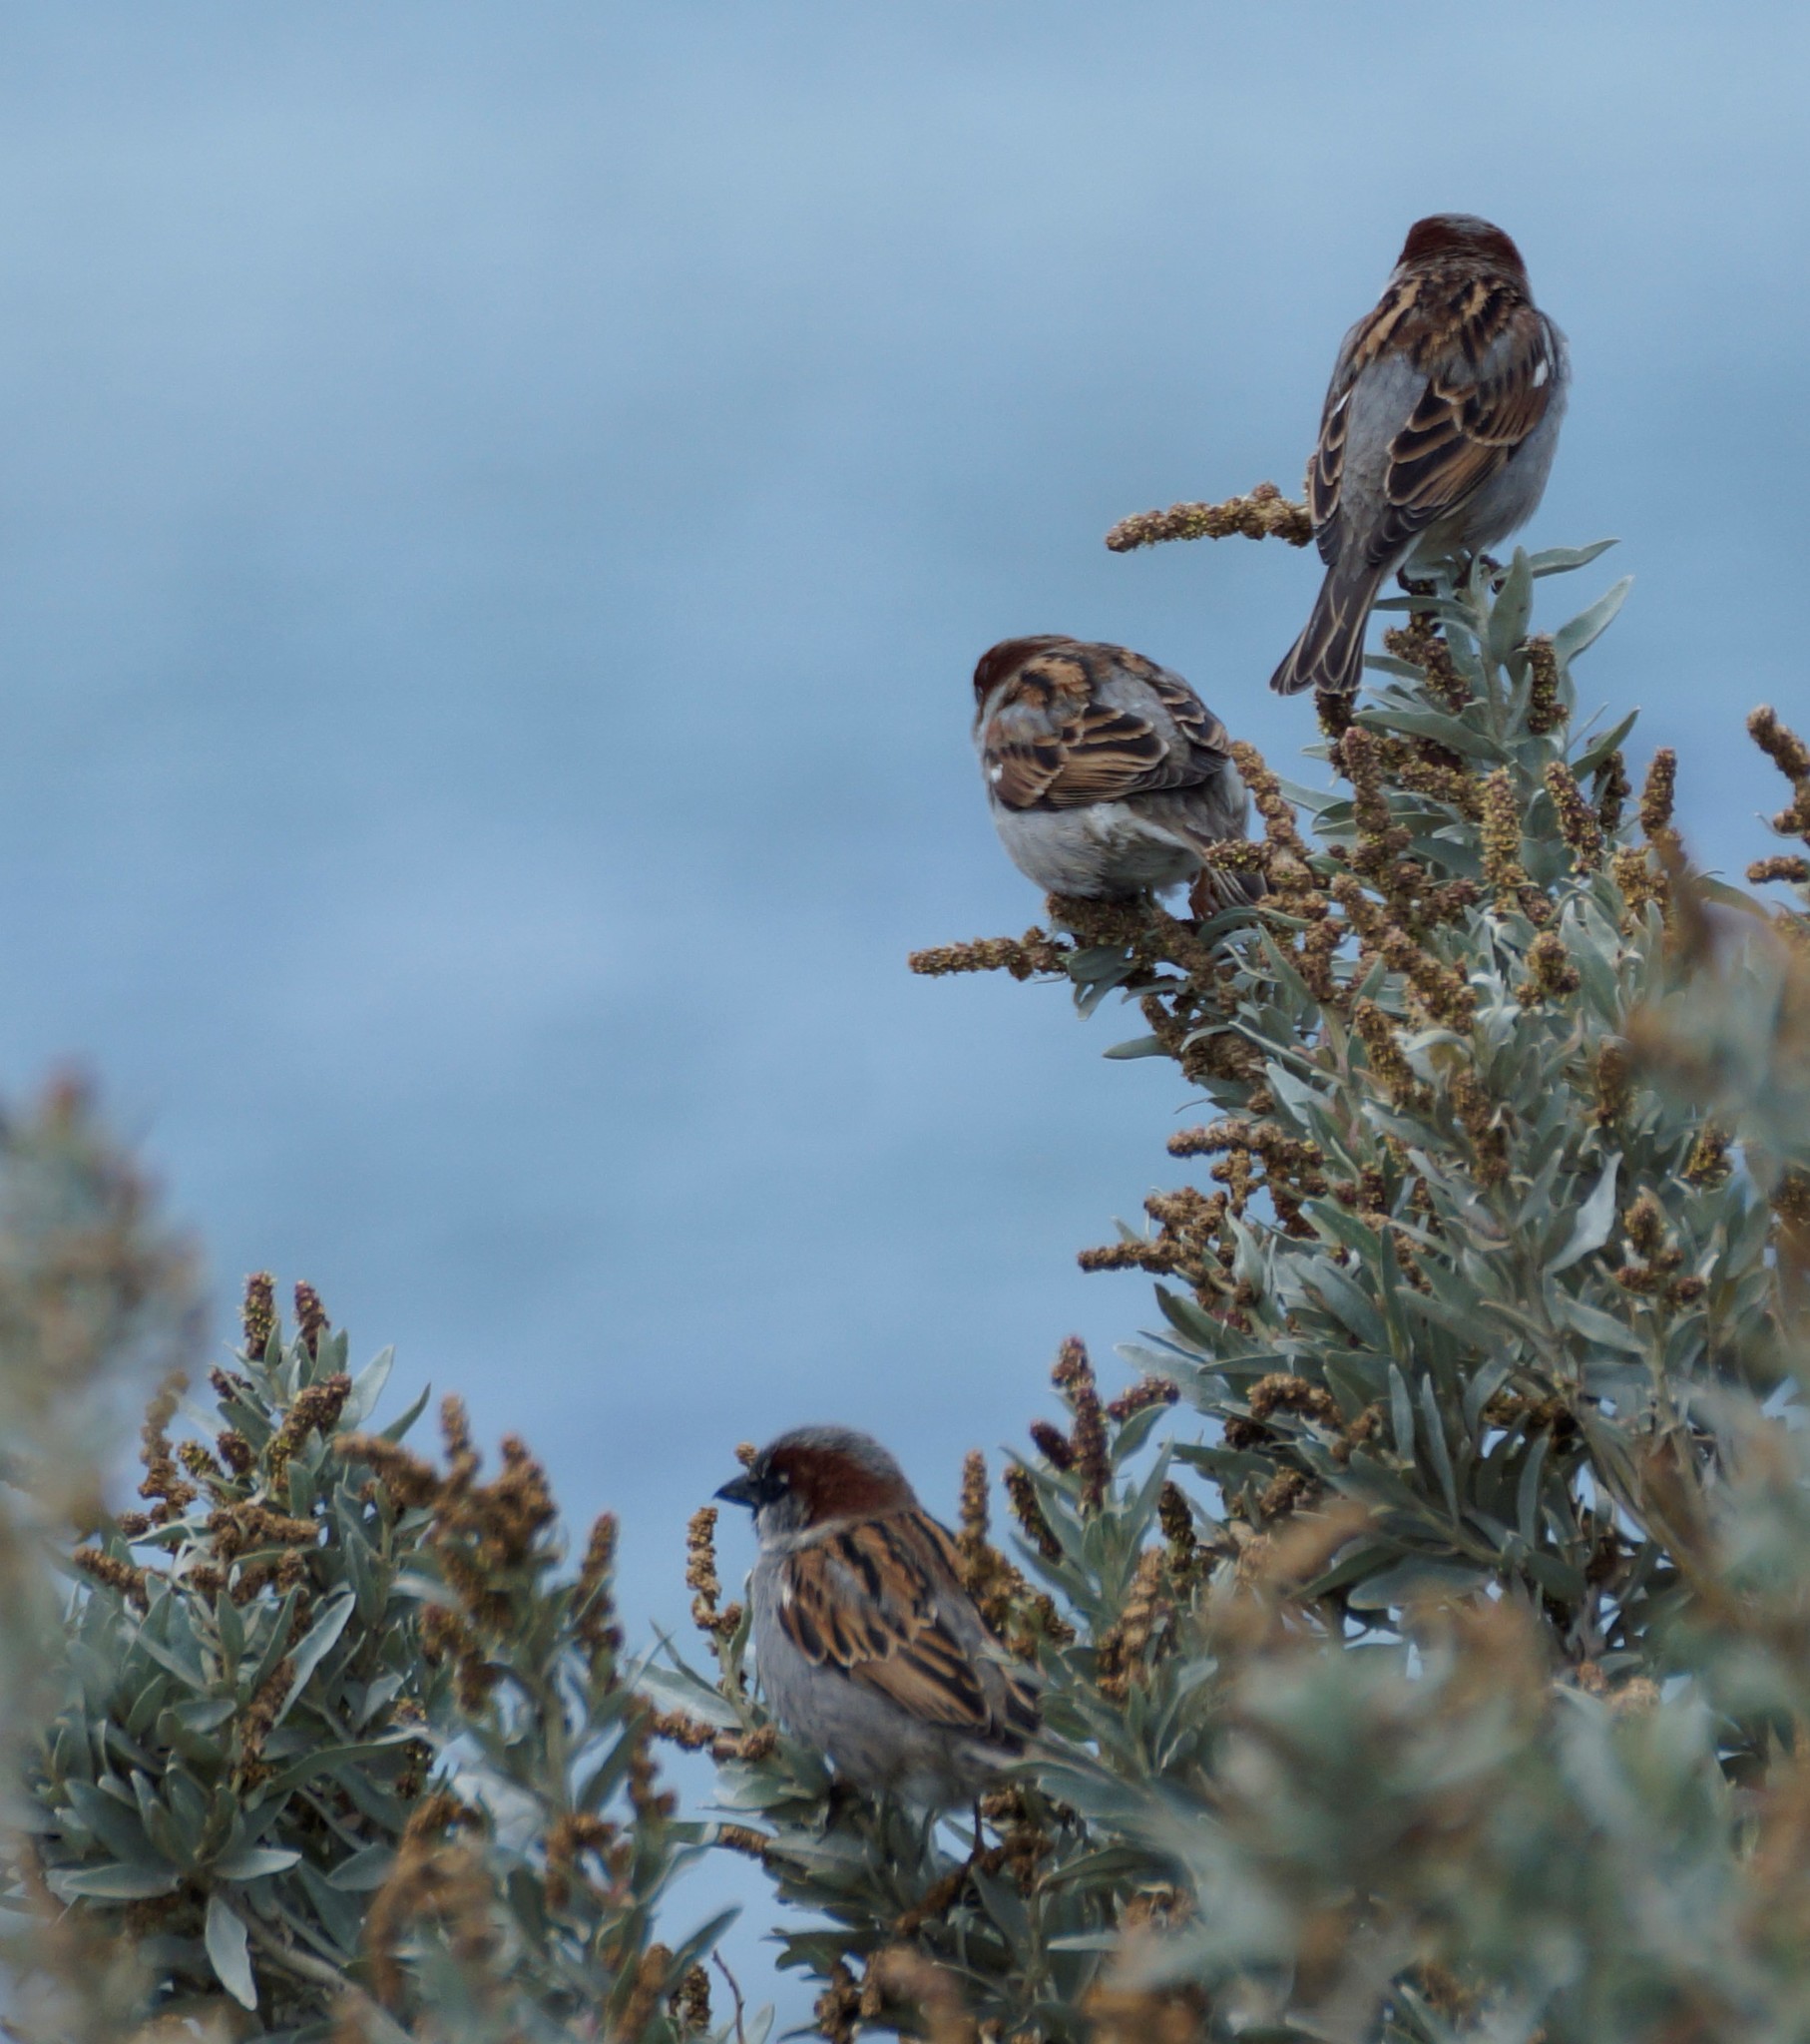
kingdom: Animalia
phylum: Chordata
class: Aves
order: Passeriformes
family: Passeridae
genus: Passer
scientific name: Passer domesticus
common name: House sparrow
